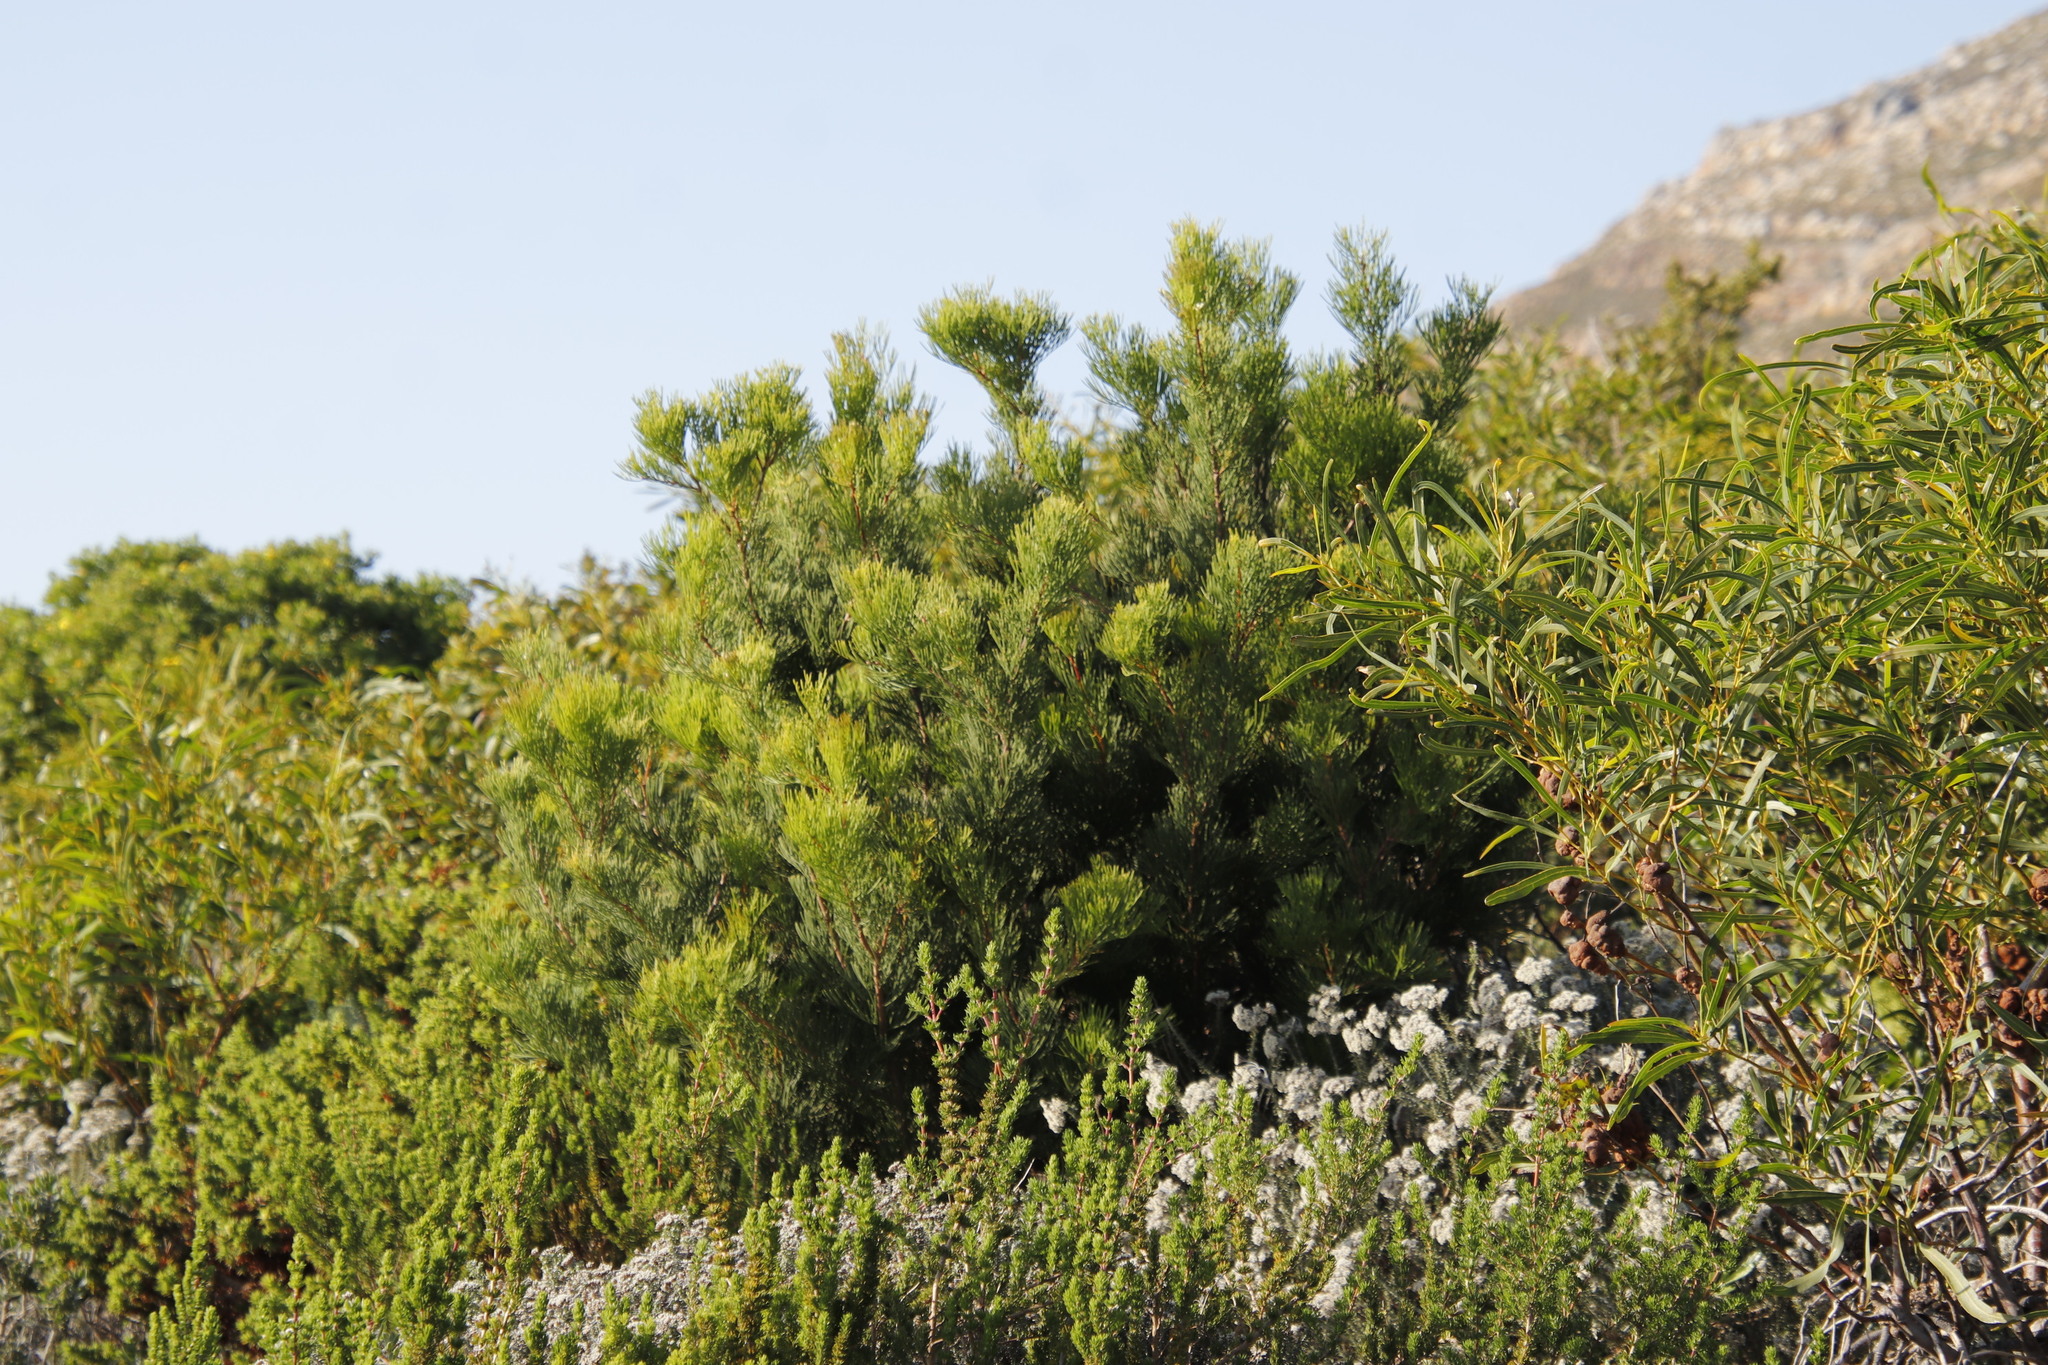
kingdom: Plantae
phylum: Tracheophyta
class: Magnoliopsida
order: Proteales
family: Proteaceae
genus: Hakea
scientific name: Hakea drupacea
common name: Sweet hakea
